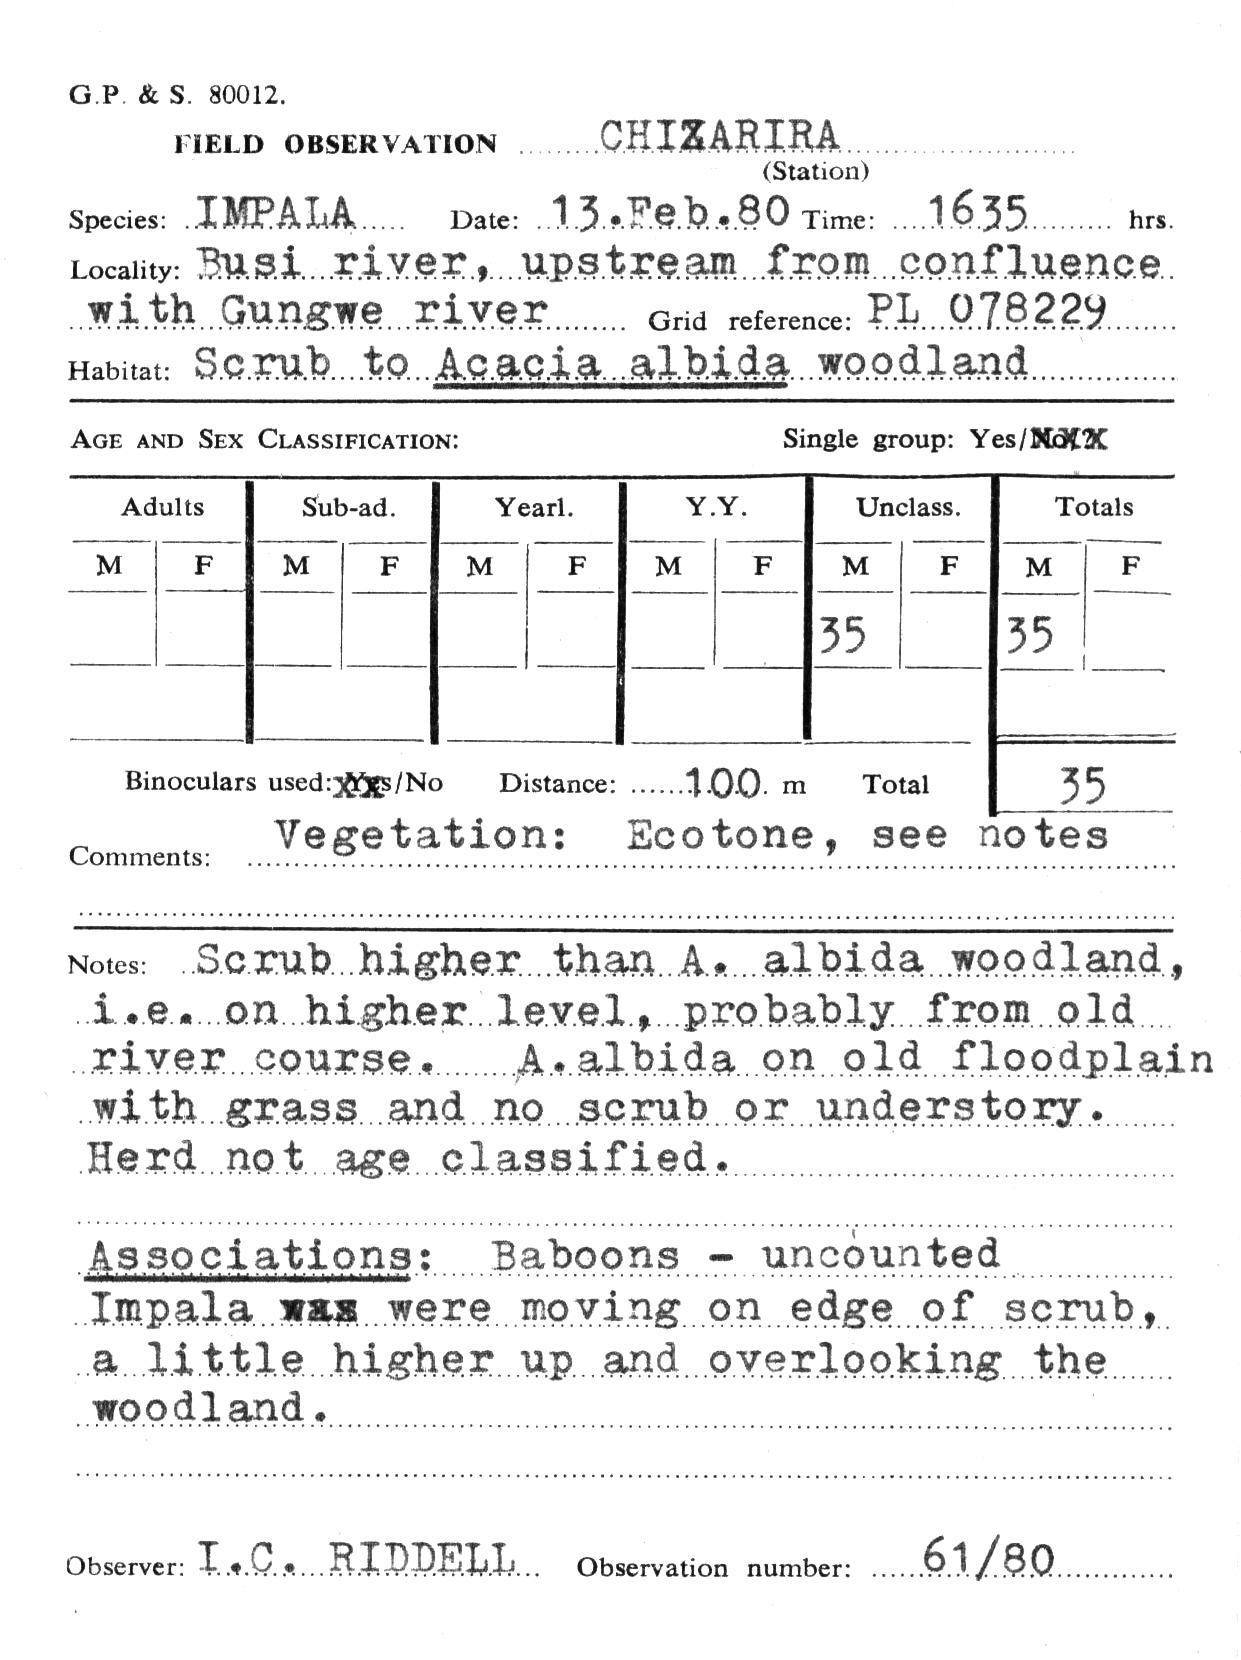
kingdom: Animalia
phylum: Chordata
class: Mammalia
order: Artiodactyla
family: Bovidae
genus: Aepyceros
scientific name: Aepyceros melampus
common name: Impala
